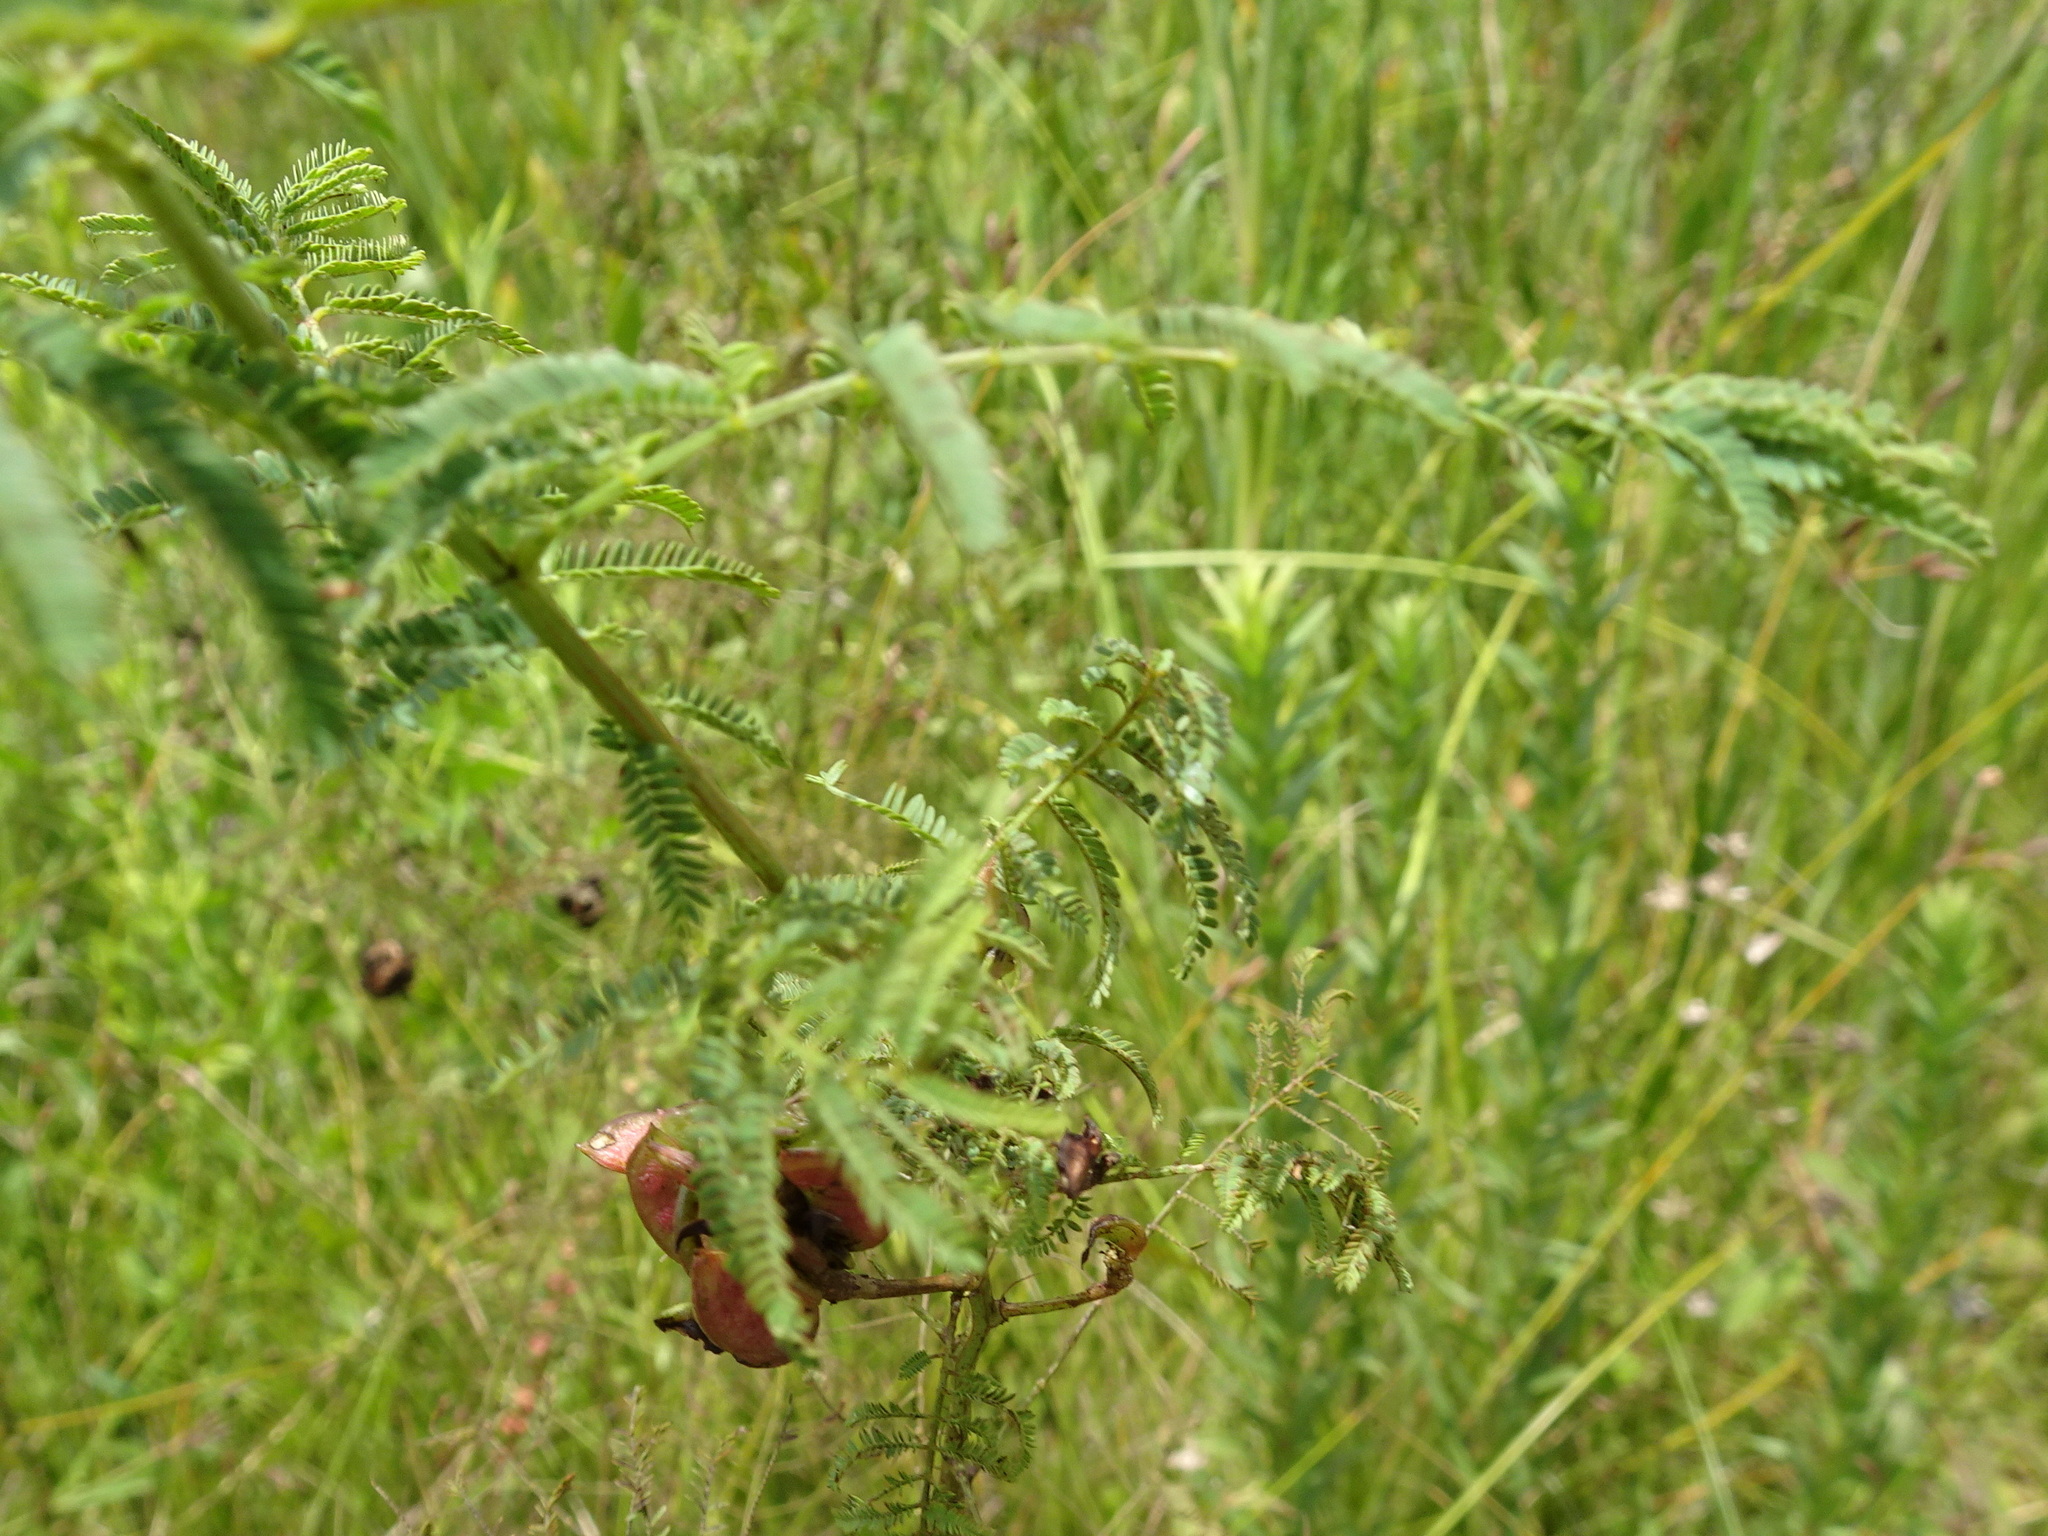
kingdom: Plantae
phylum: Tracheophyta
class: Magnoliopsida
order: Fabales
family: Fabaceae
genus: Desmanthus
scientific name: Desmanthus illinoensis
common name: Illinois bundle-flower
